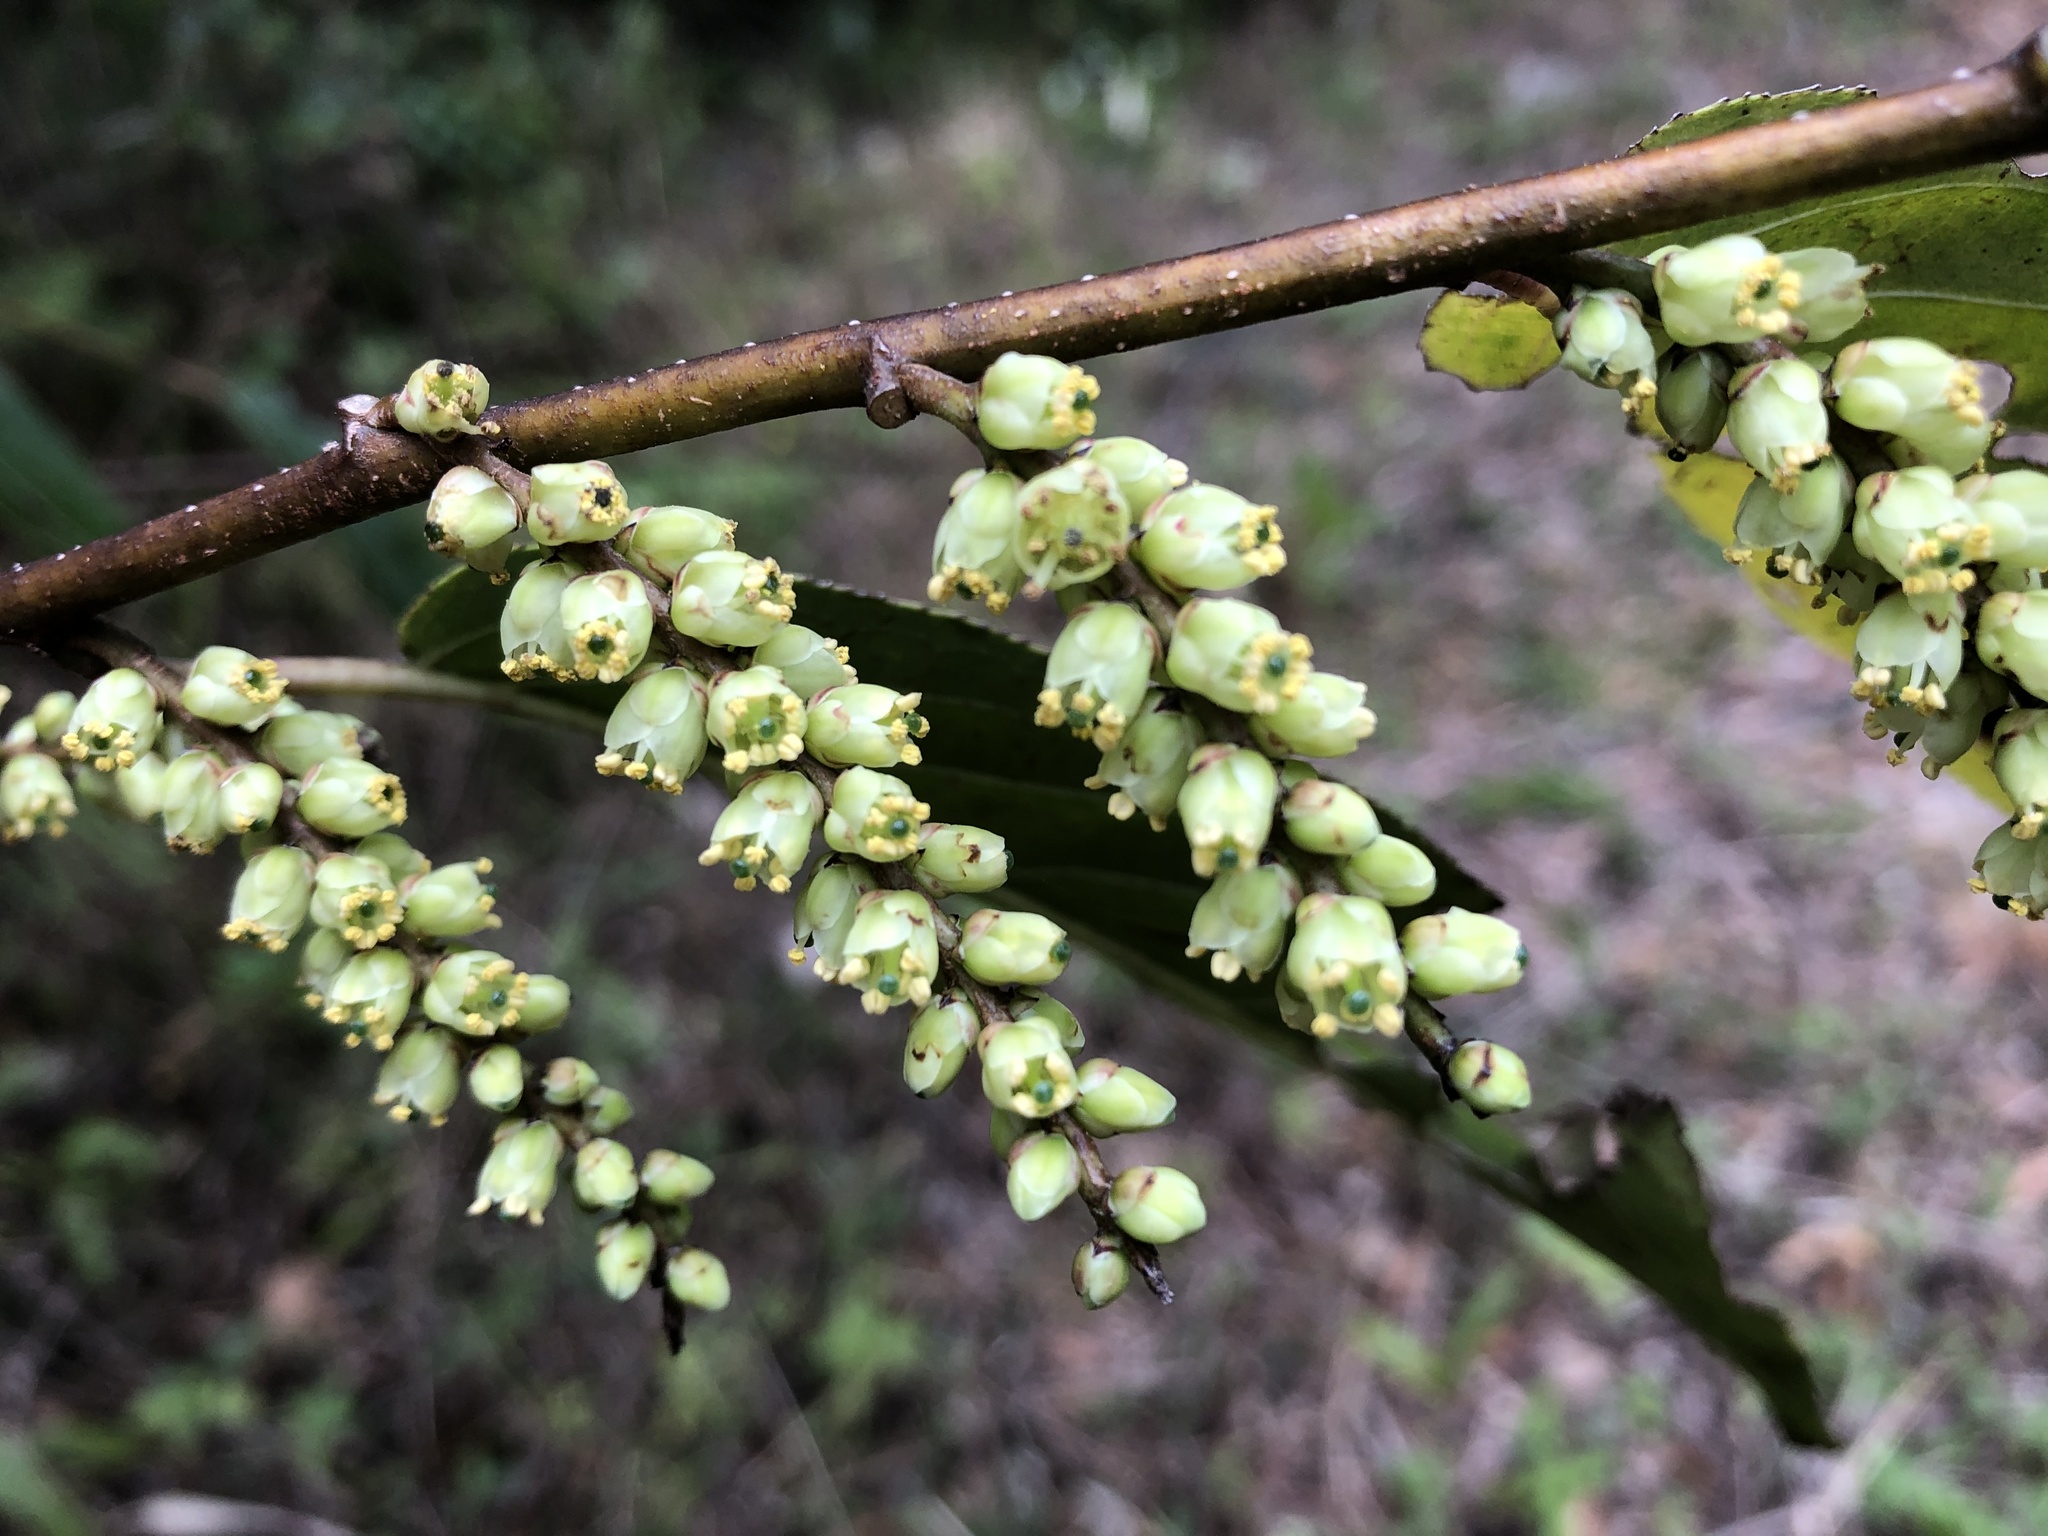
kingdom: Plantae
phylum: Tracheophyta
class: Magnoliopsida
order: Crossosomatales
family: Stachyuraceae
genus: Stachyurus
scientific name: Stachyurus himalaicus
